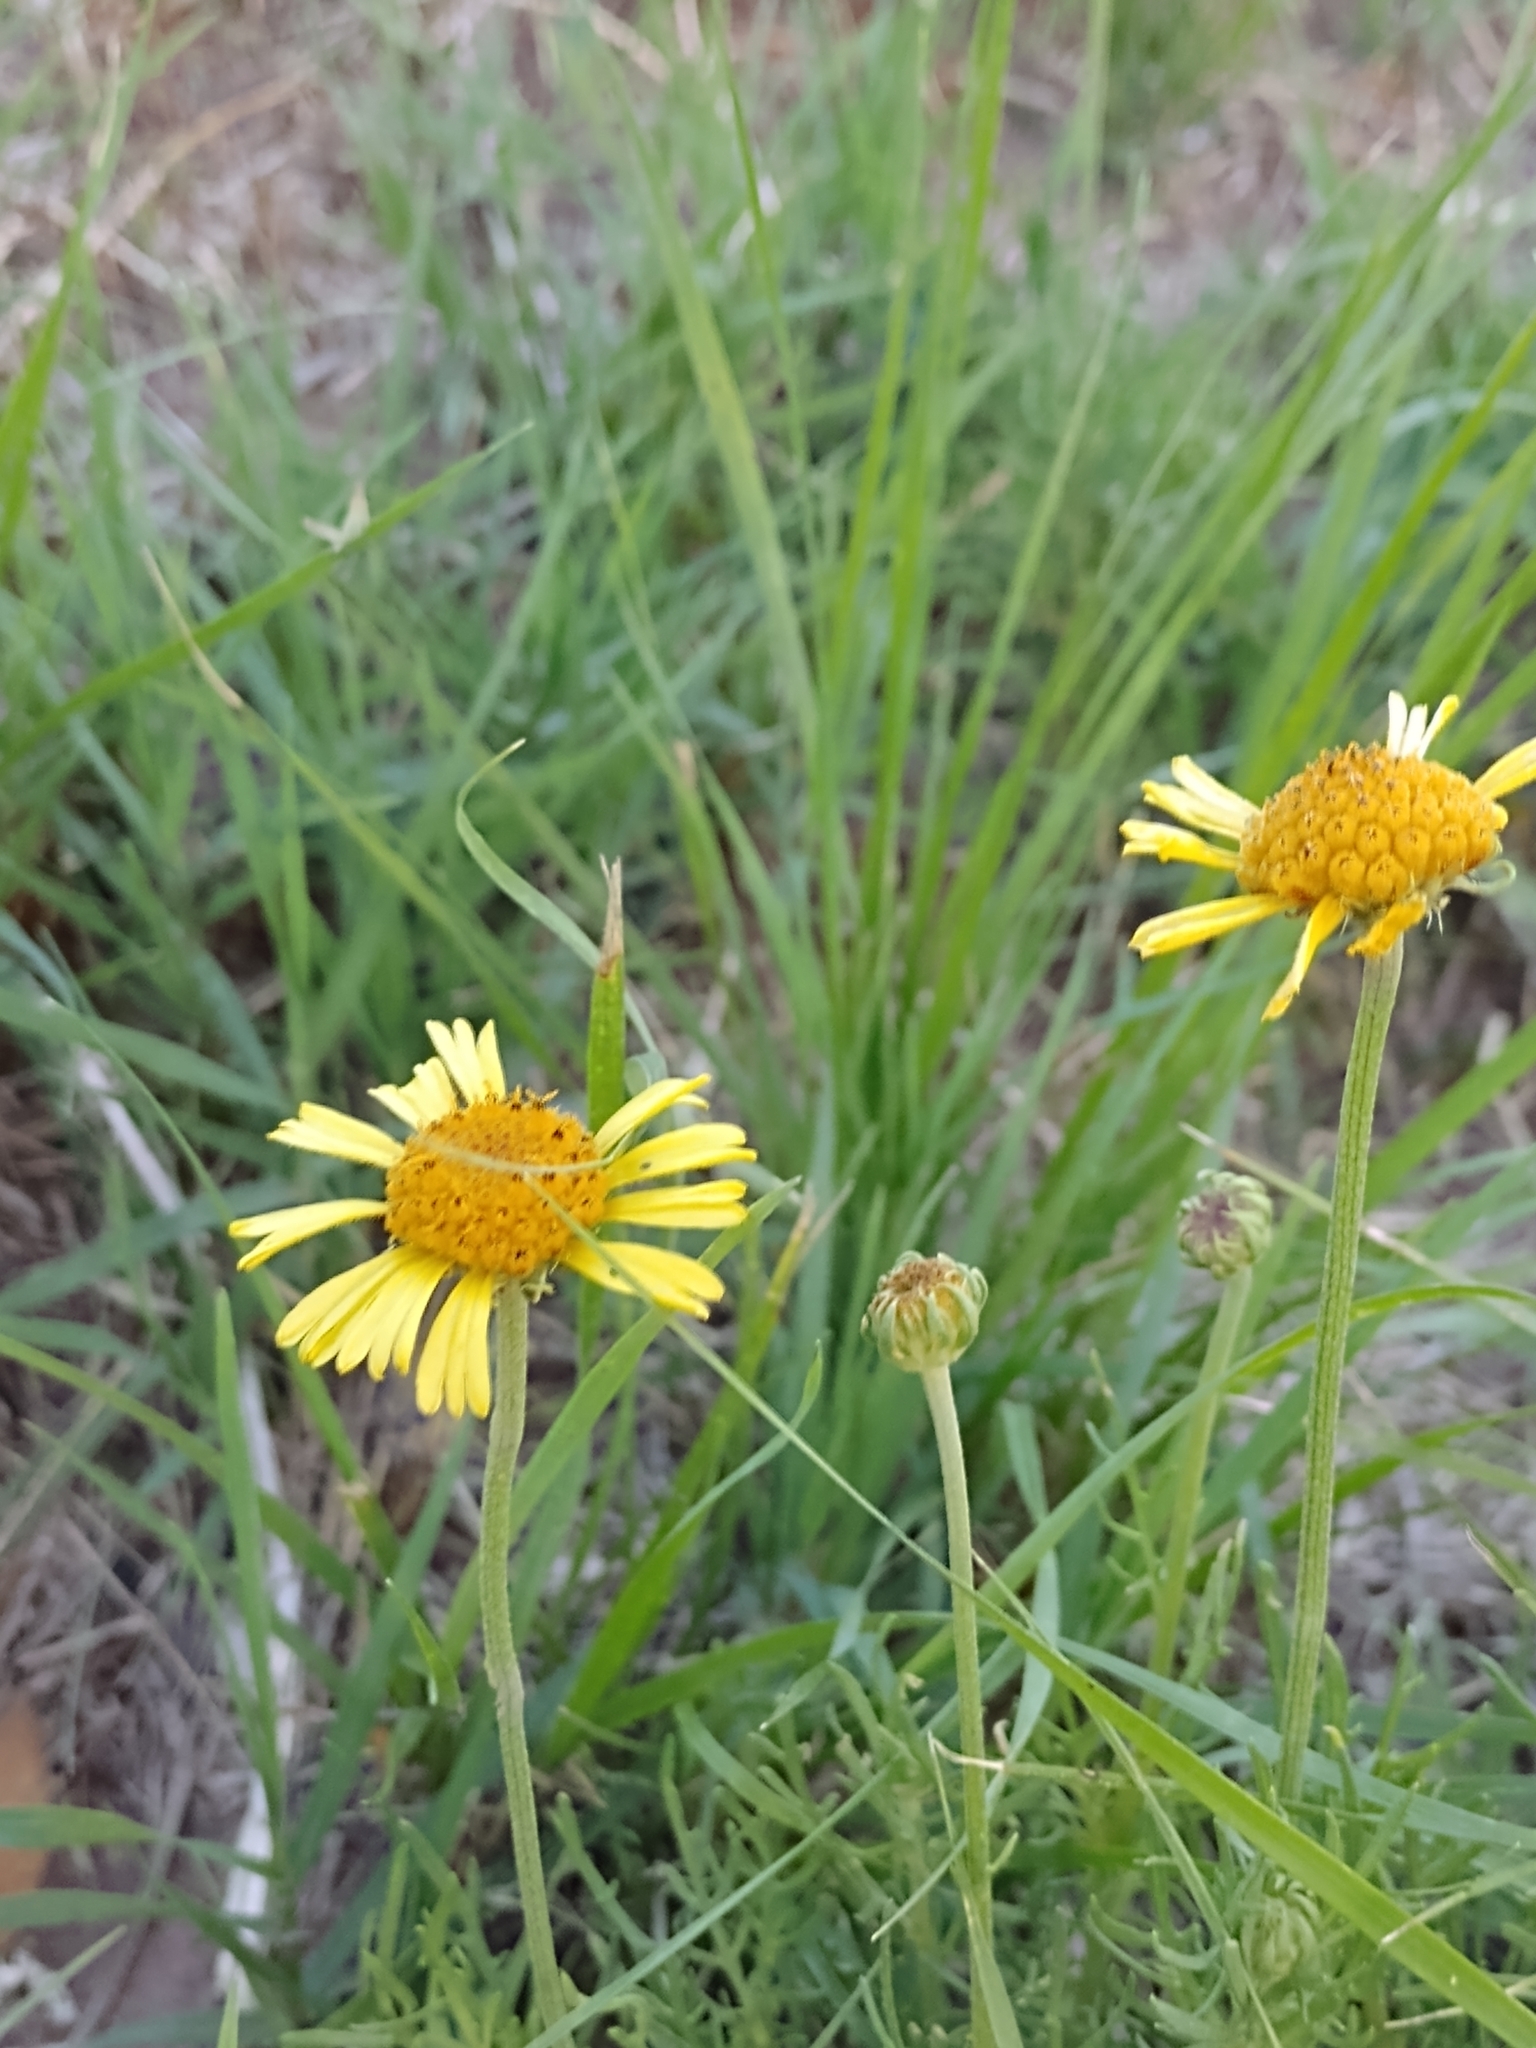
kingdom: Plantae
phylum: Tracheophyta
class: Magnoliopsida
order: Asterales
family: Asteraceae
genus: Gaillardia
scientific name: Gaillardia megapotamica
